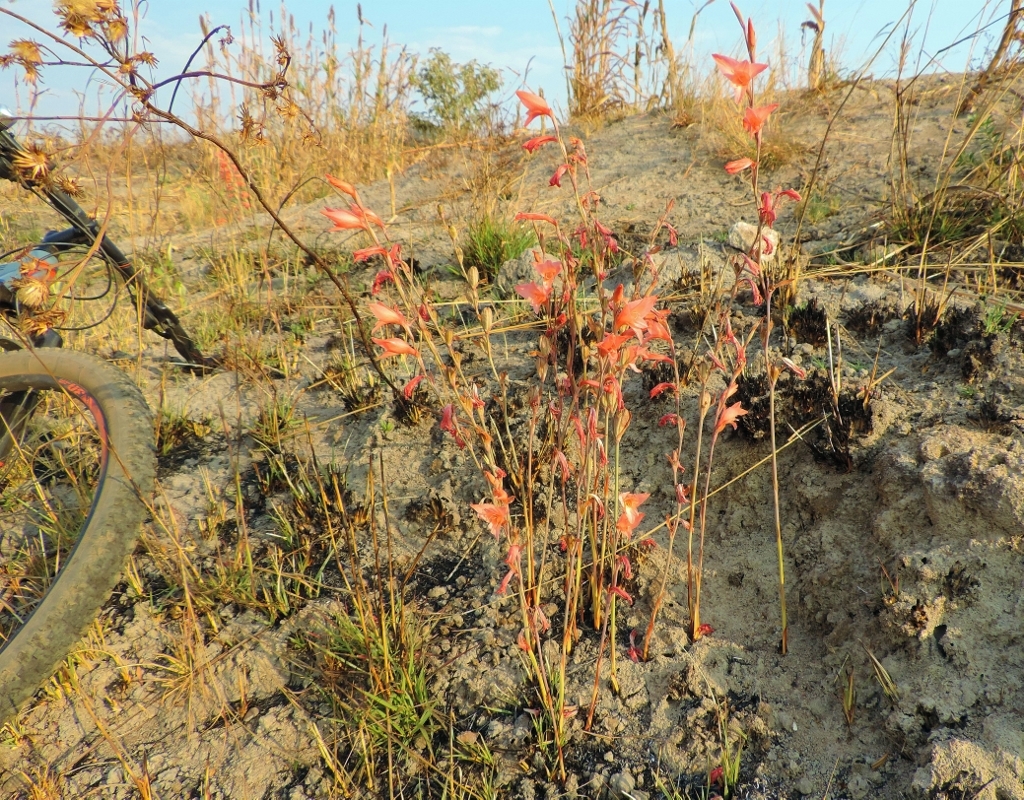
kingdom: Plantae
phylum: Tracheophyta
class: Liliopsida
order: Asparagales
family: Iridaceae
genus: Gladiolus
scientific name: Gladiolus melleri
